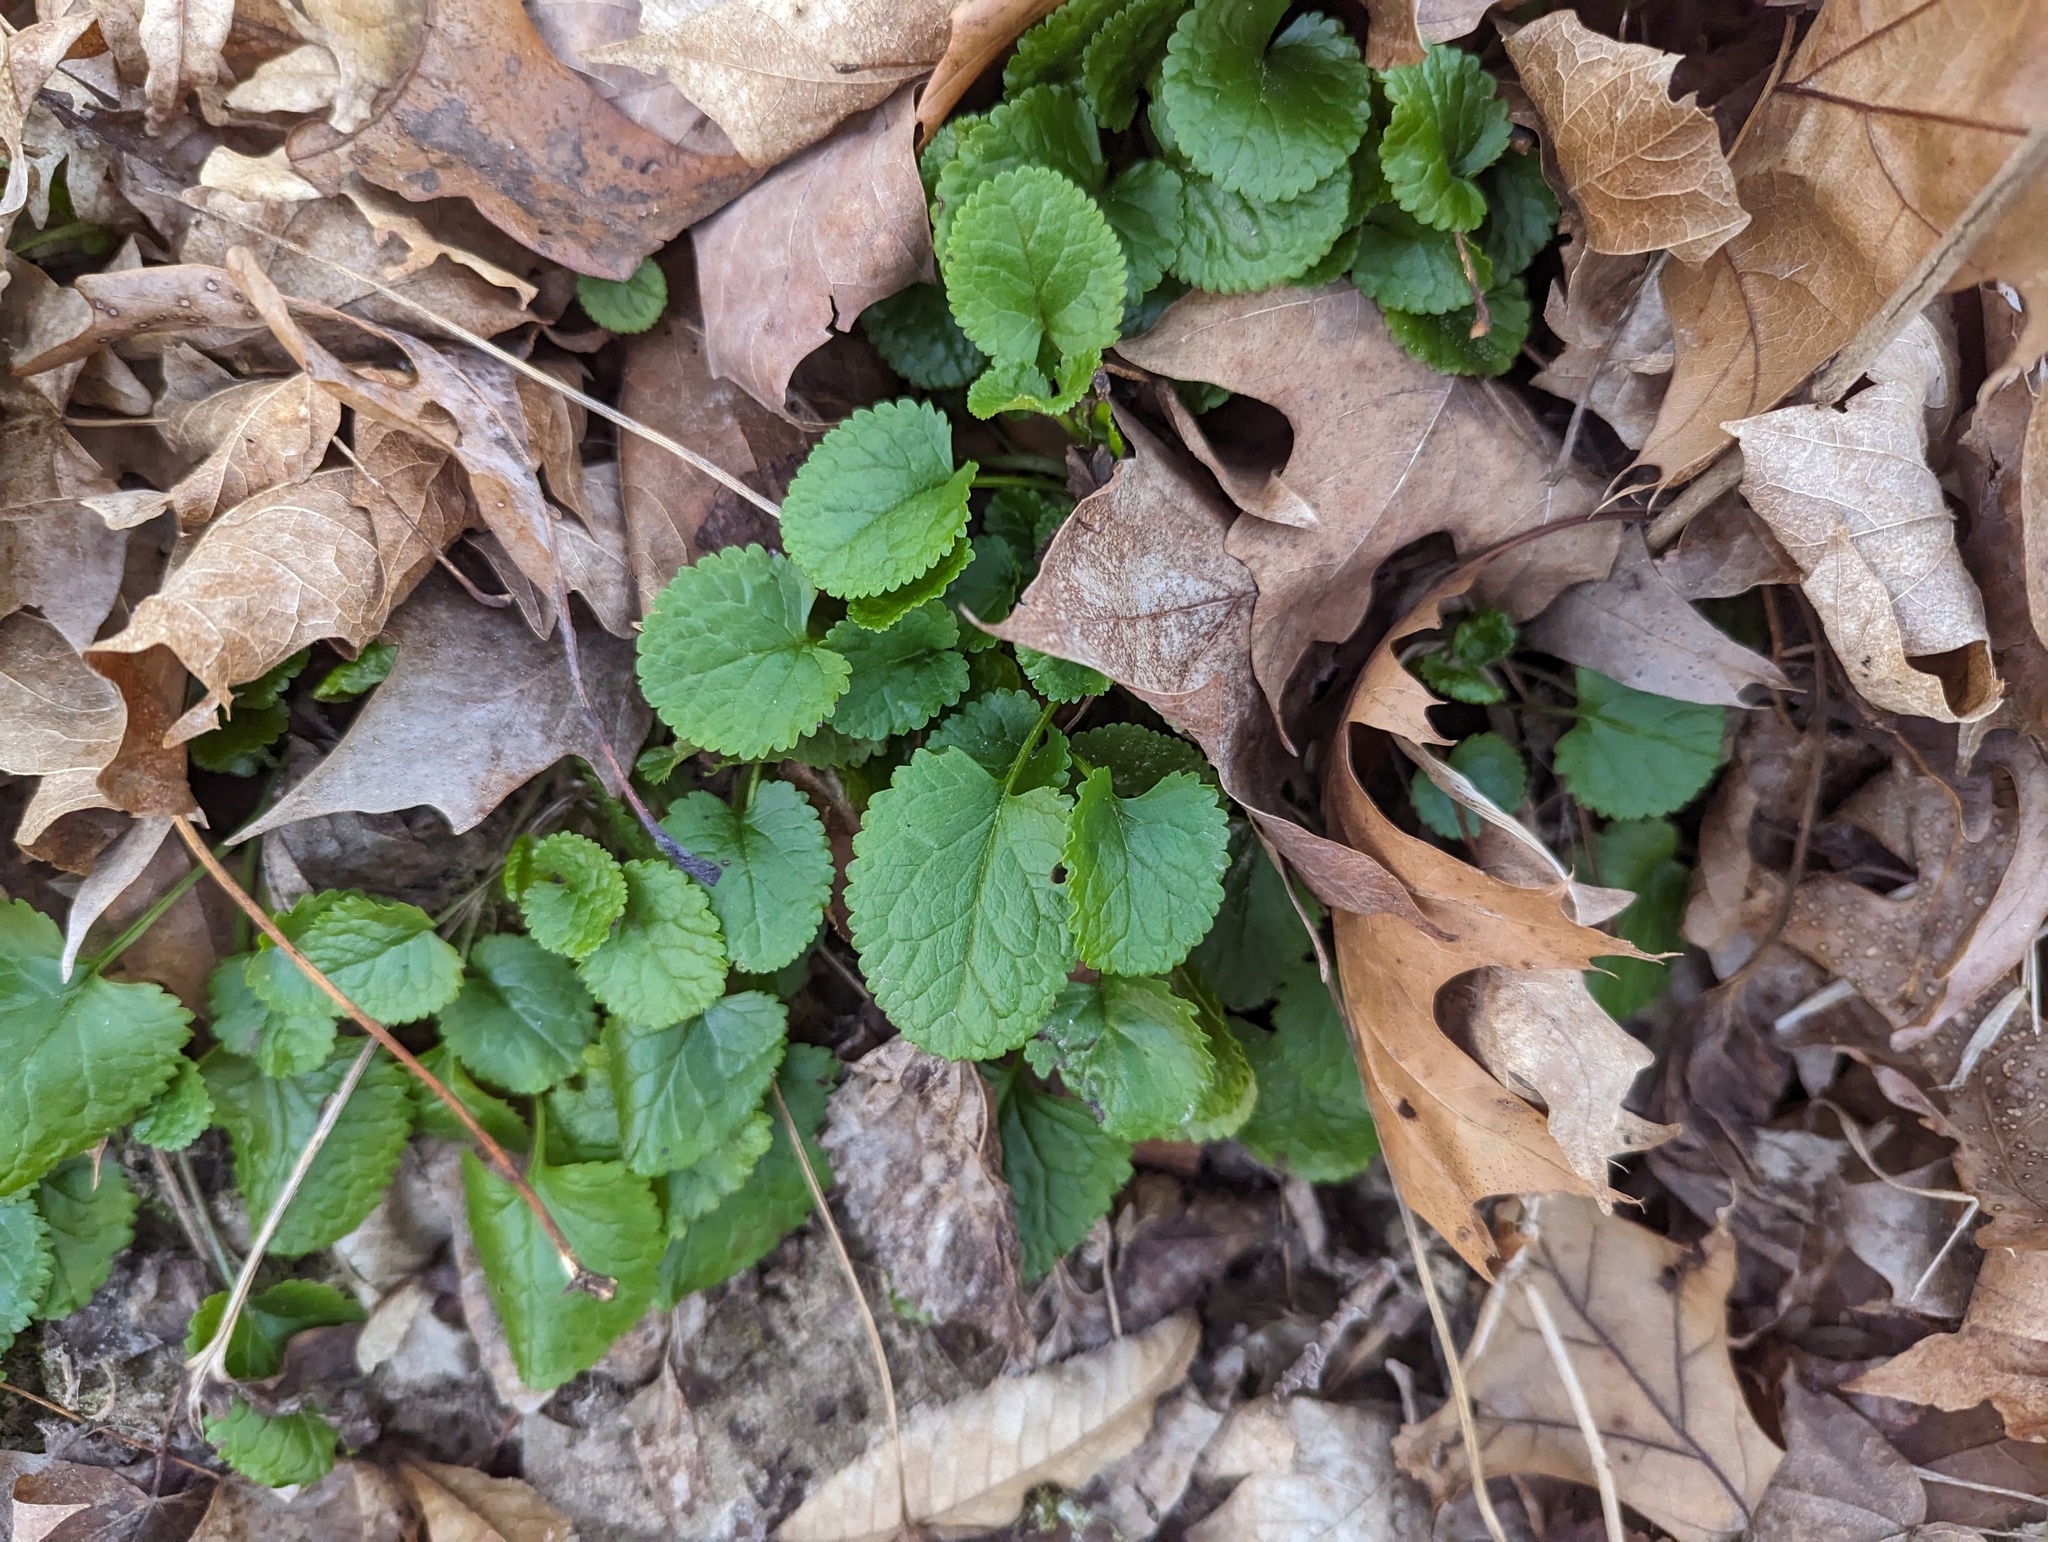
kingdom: Plantae
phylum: Tracheophyta
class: Magnoliopsida
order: Asterales
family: Asteraceae
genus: Packera
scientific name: Packera aurea
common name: Golden groundsel
